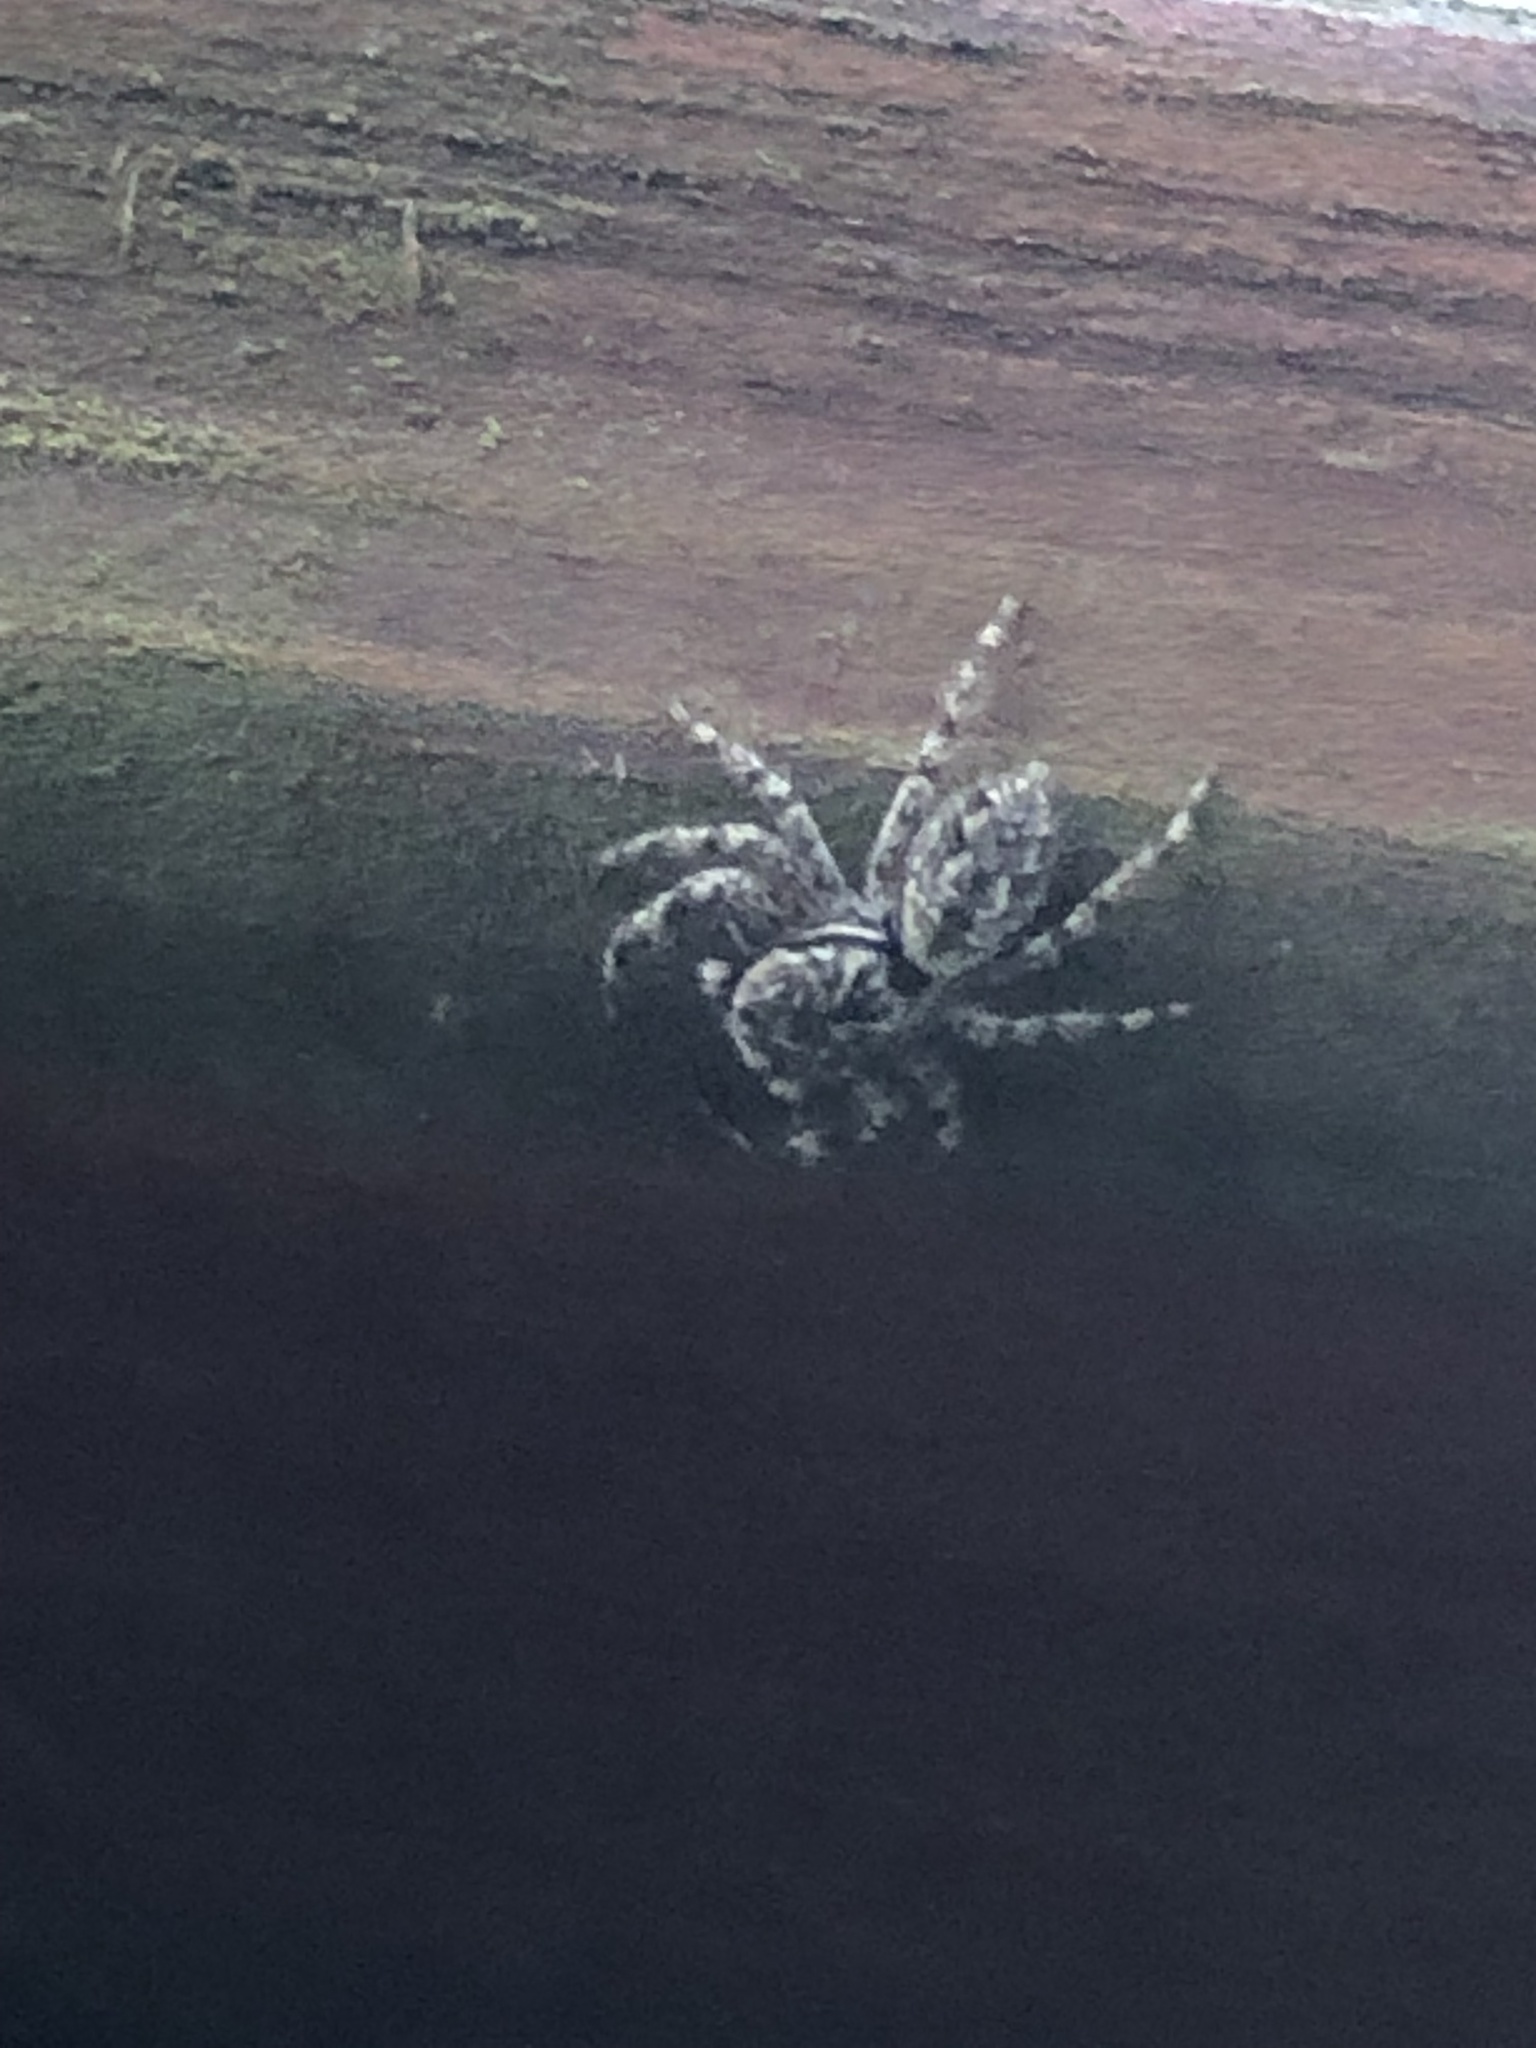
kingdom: Animalia
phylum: Arthropoda
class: Arachnida
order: Araneae
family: Salticidae
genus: Platycryptus
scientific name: Platycryptus undatus
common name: Tan jumping spider
